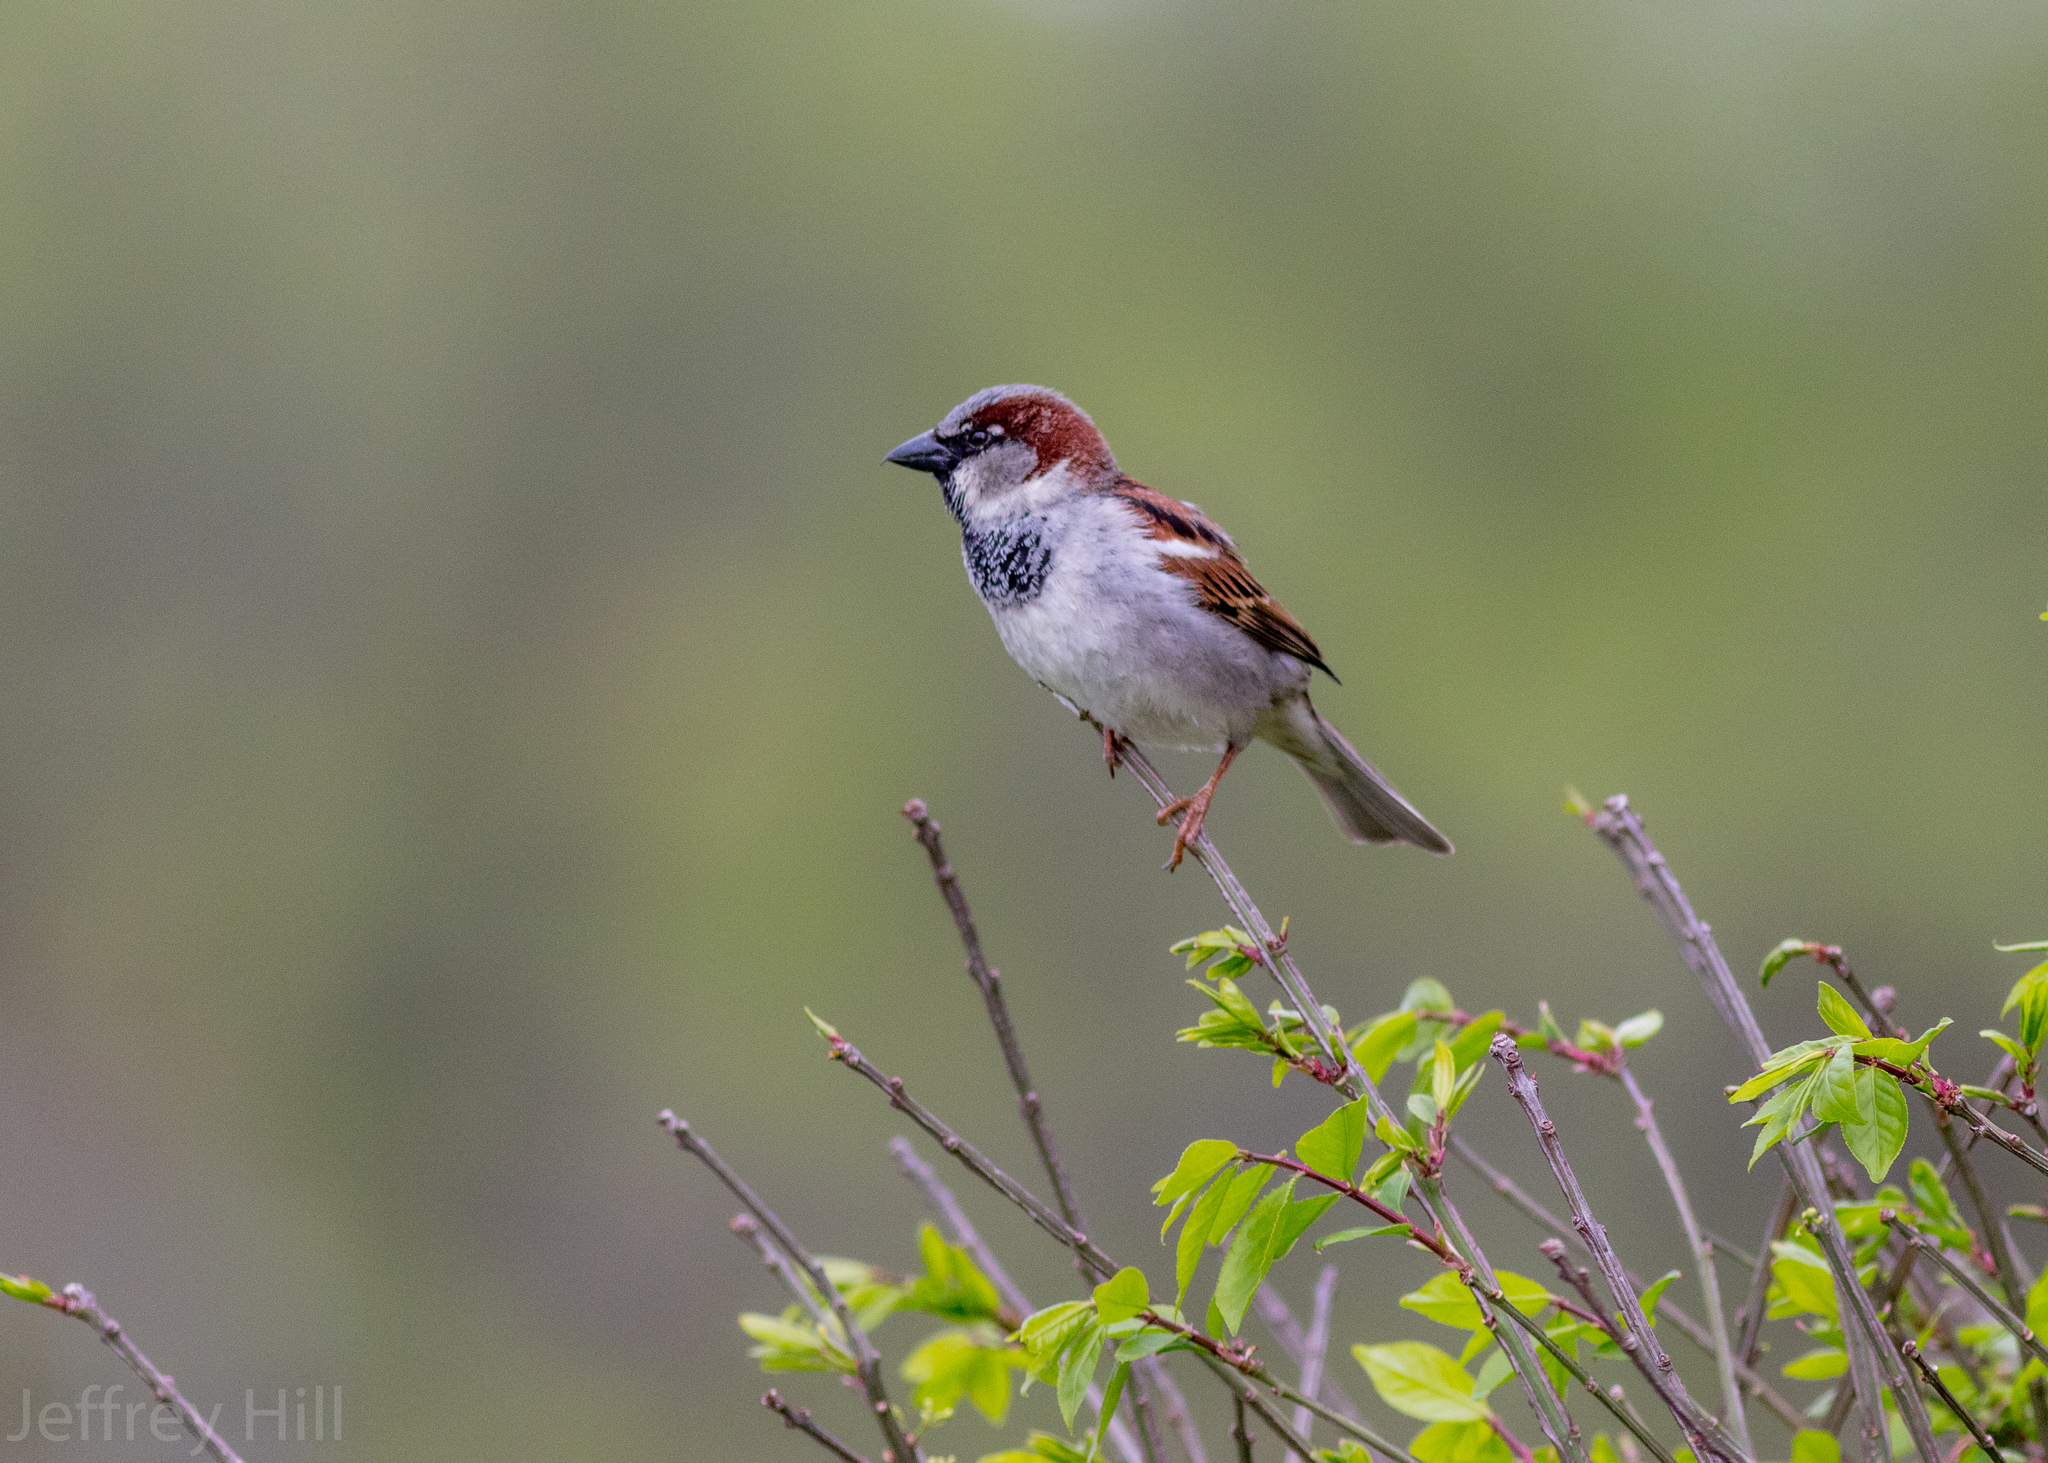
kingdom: Animalia
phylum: Chordata
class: Aves
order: Passeriformes
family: Passeridae
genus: Passer
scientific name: Passer domesticus
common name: House sparrow
